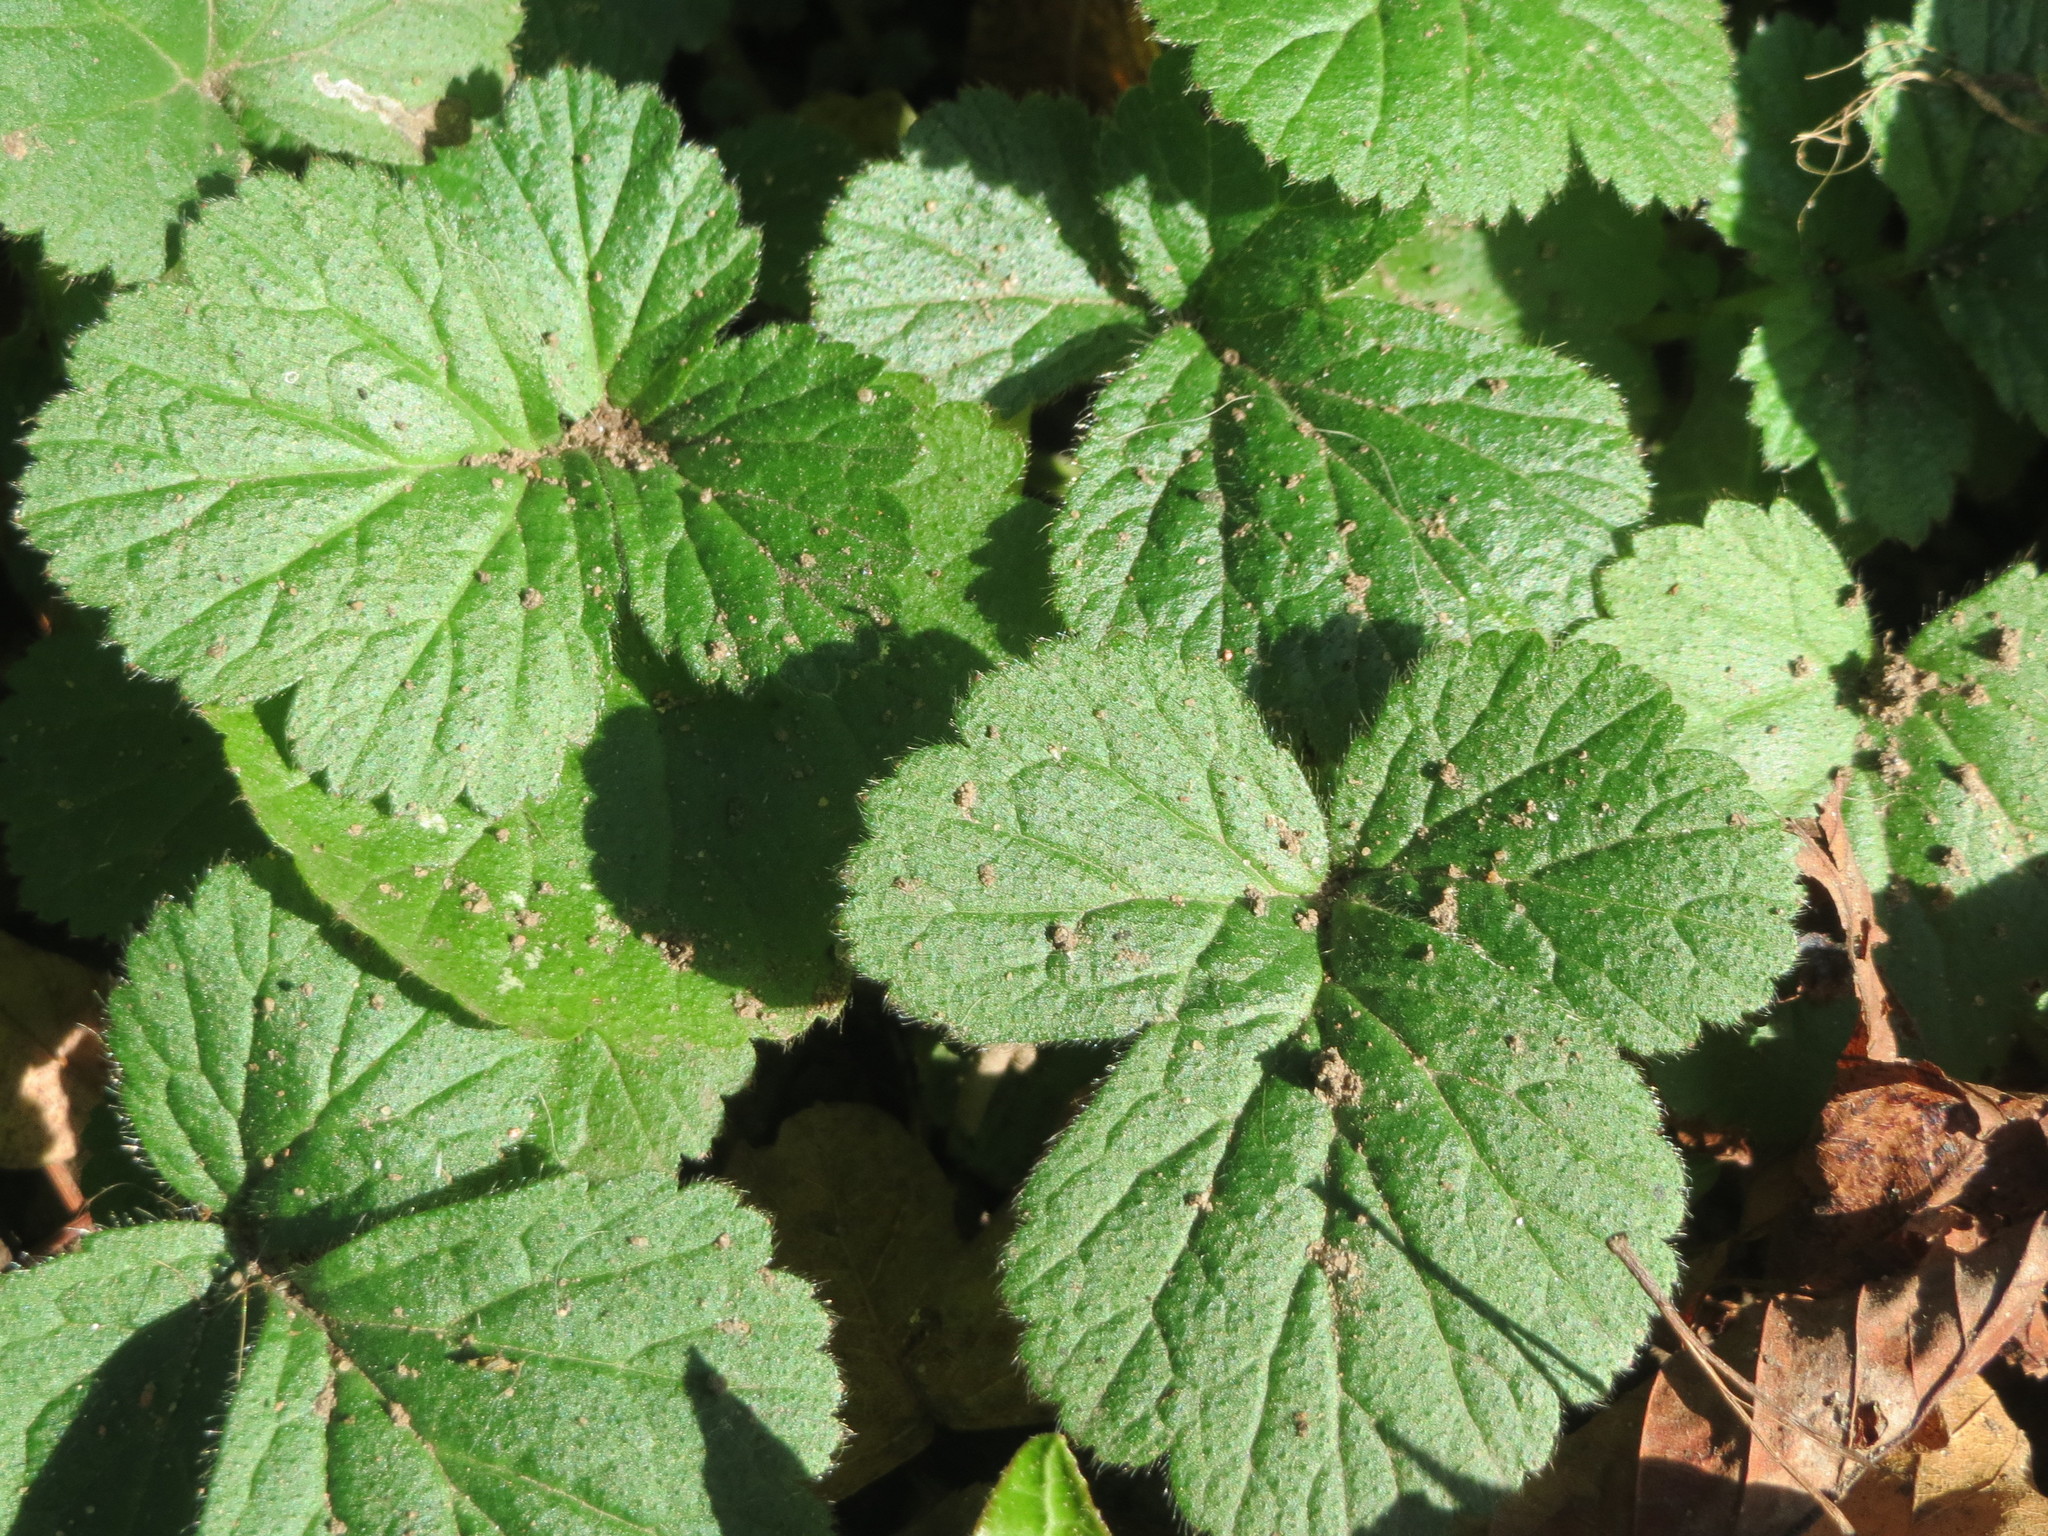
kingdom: Plantae
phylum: Tracheophyta
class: Magnoliopsida
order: Rosales
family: Rosaceae
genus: Geum
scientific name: Geum urbanum
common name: Wood avens
